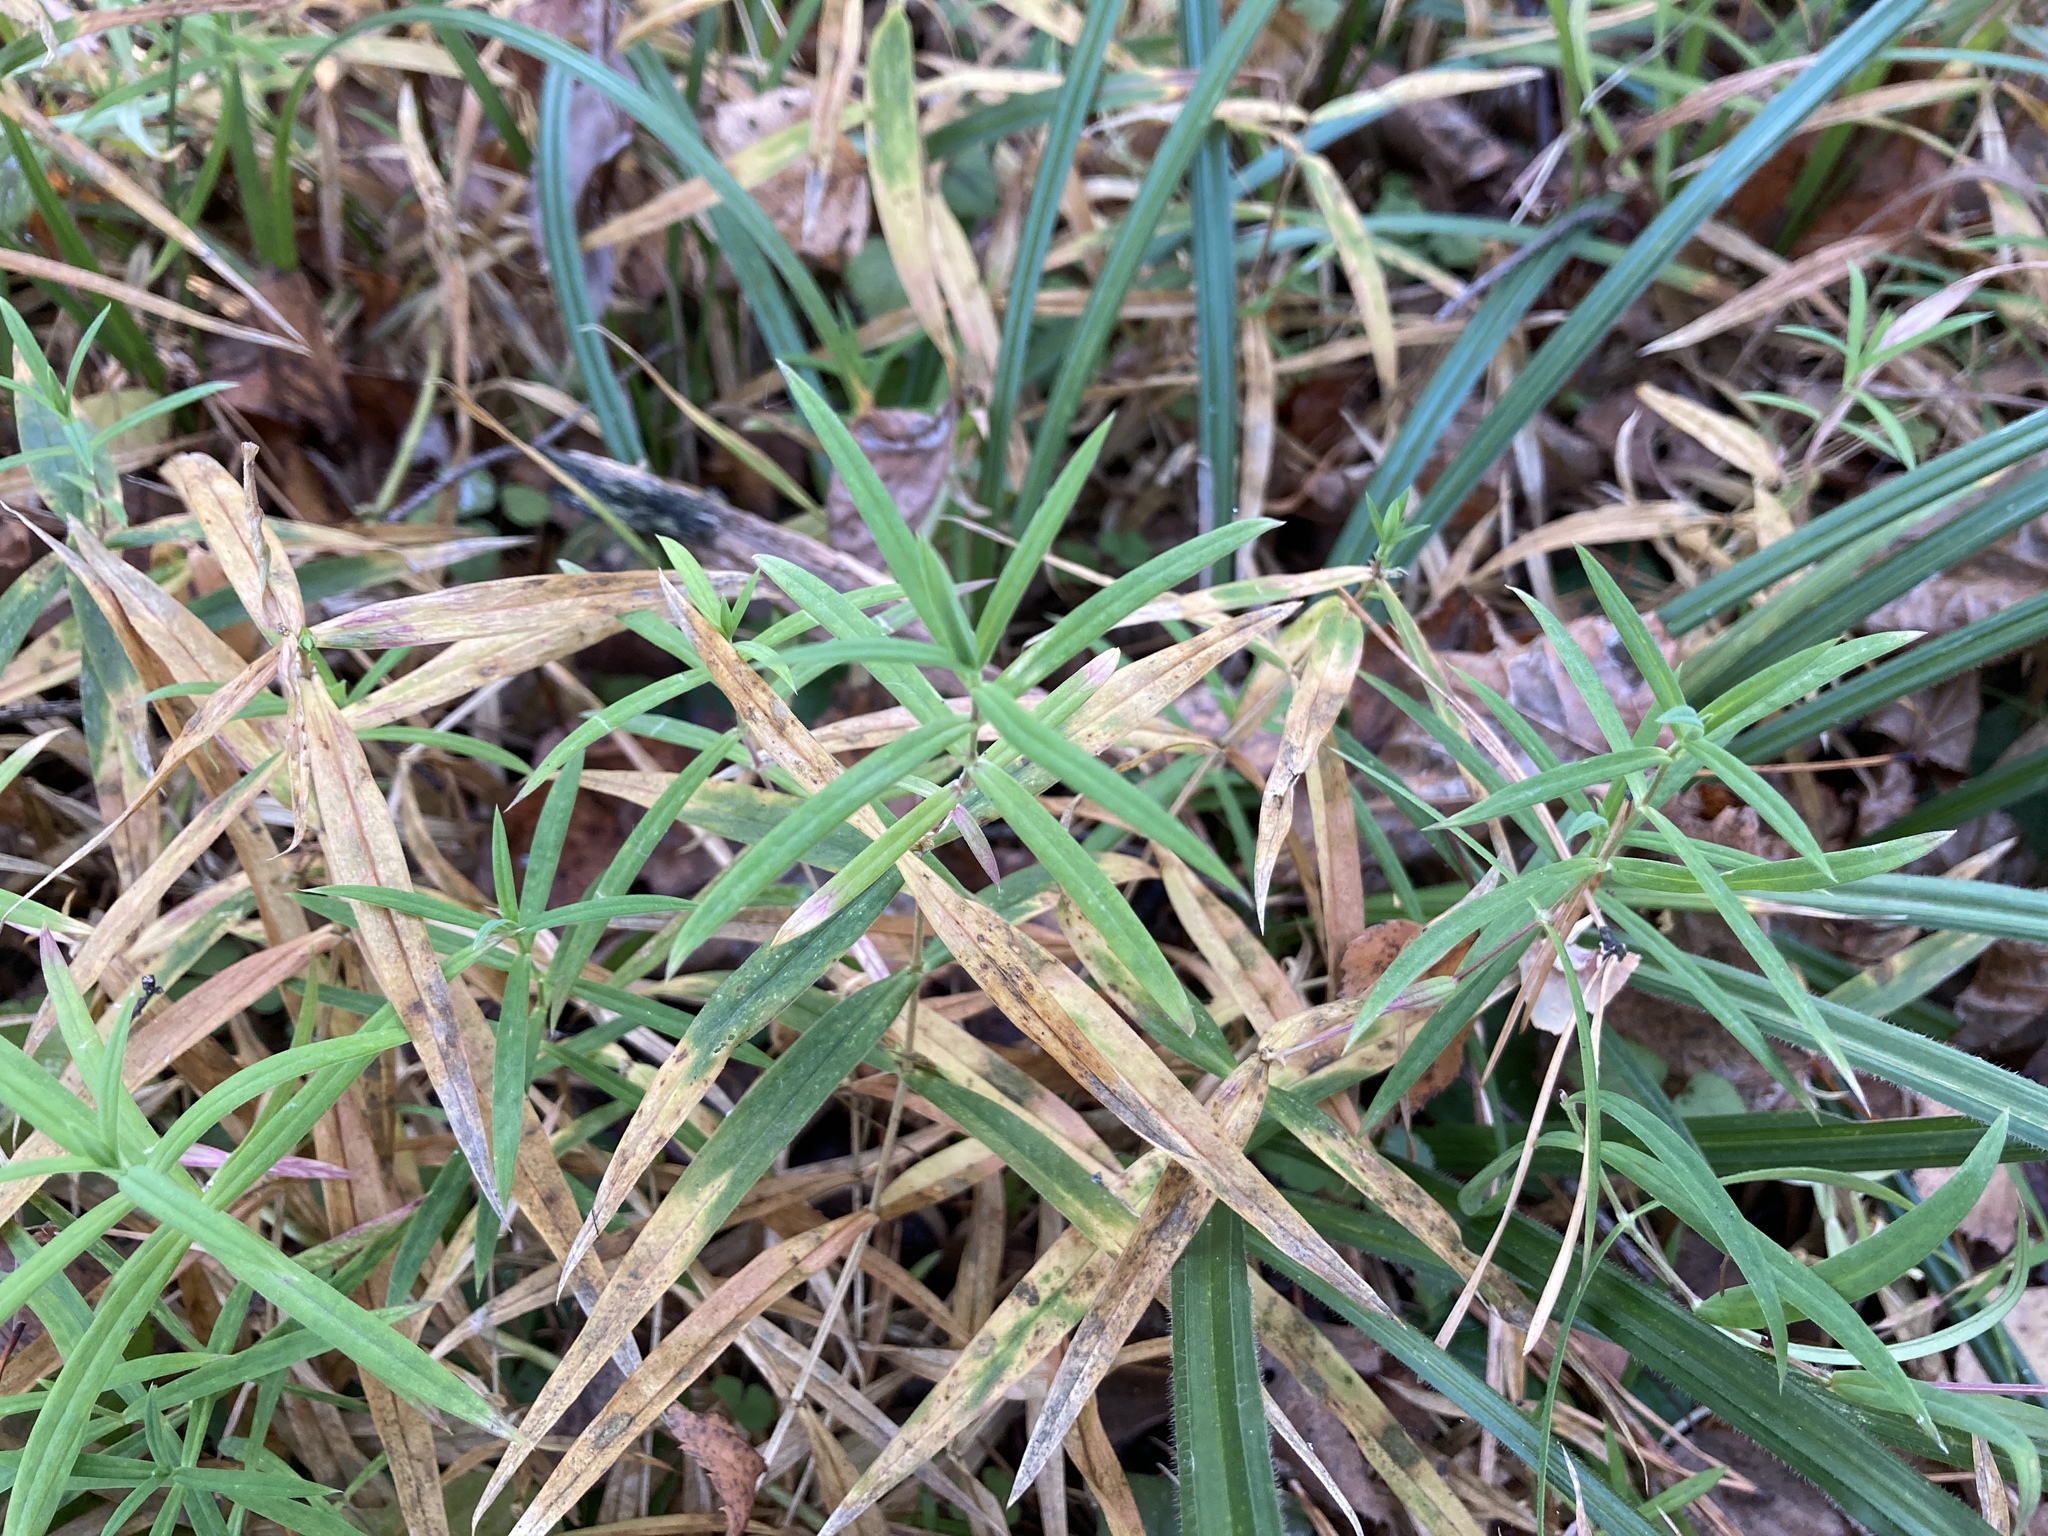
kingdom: Plantae
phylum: Tracheophyta
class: Magnoliopsida
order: Caryophyllales
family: Caryophyllaceae
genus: Rabelera
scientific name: Rabelera holostea
